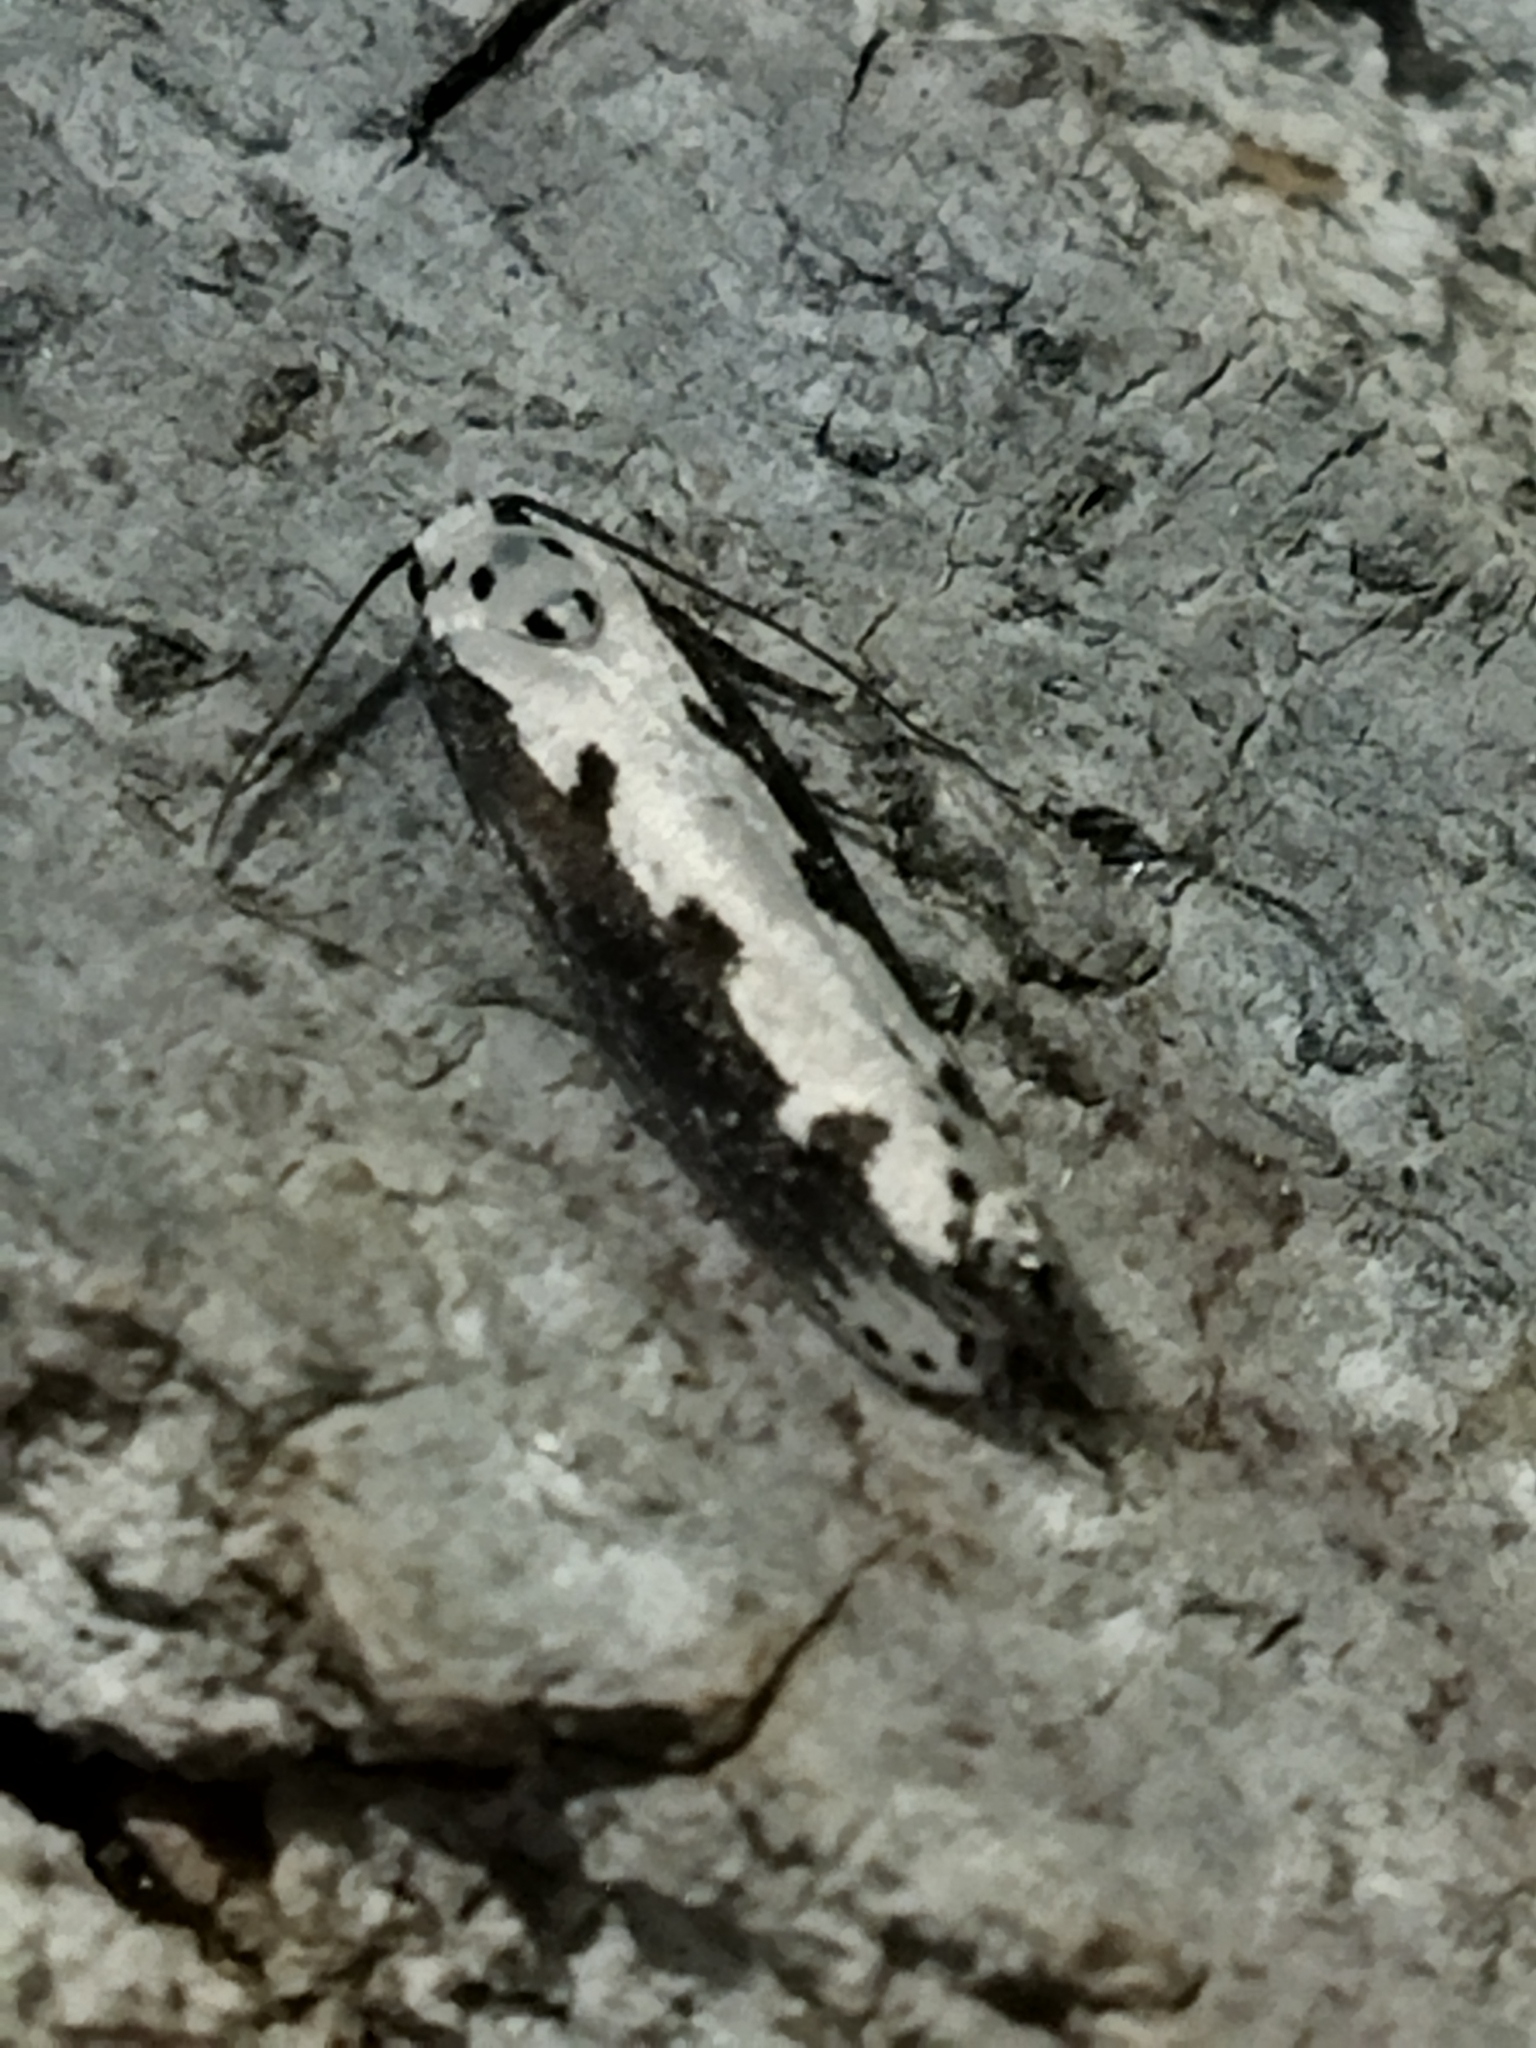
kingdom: Animalia
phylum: Arthropoda
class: Insecta
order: Lepidoptera
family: Ethmiidae
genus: Ethmia
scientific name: Ethmia bipunctella
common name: Bordered ermel
